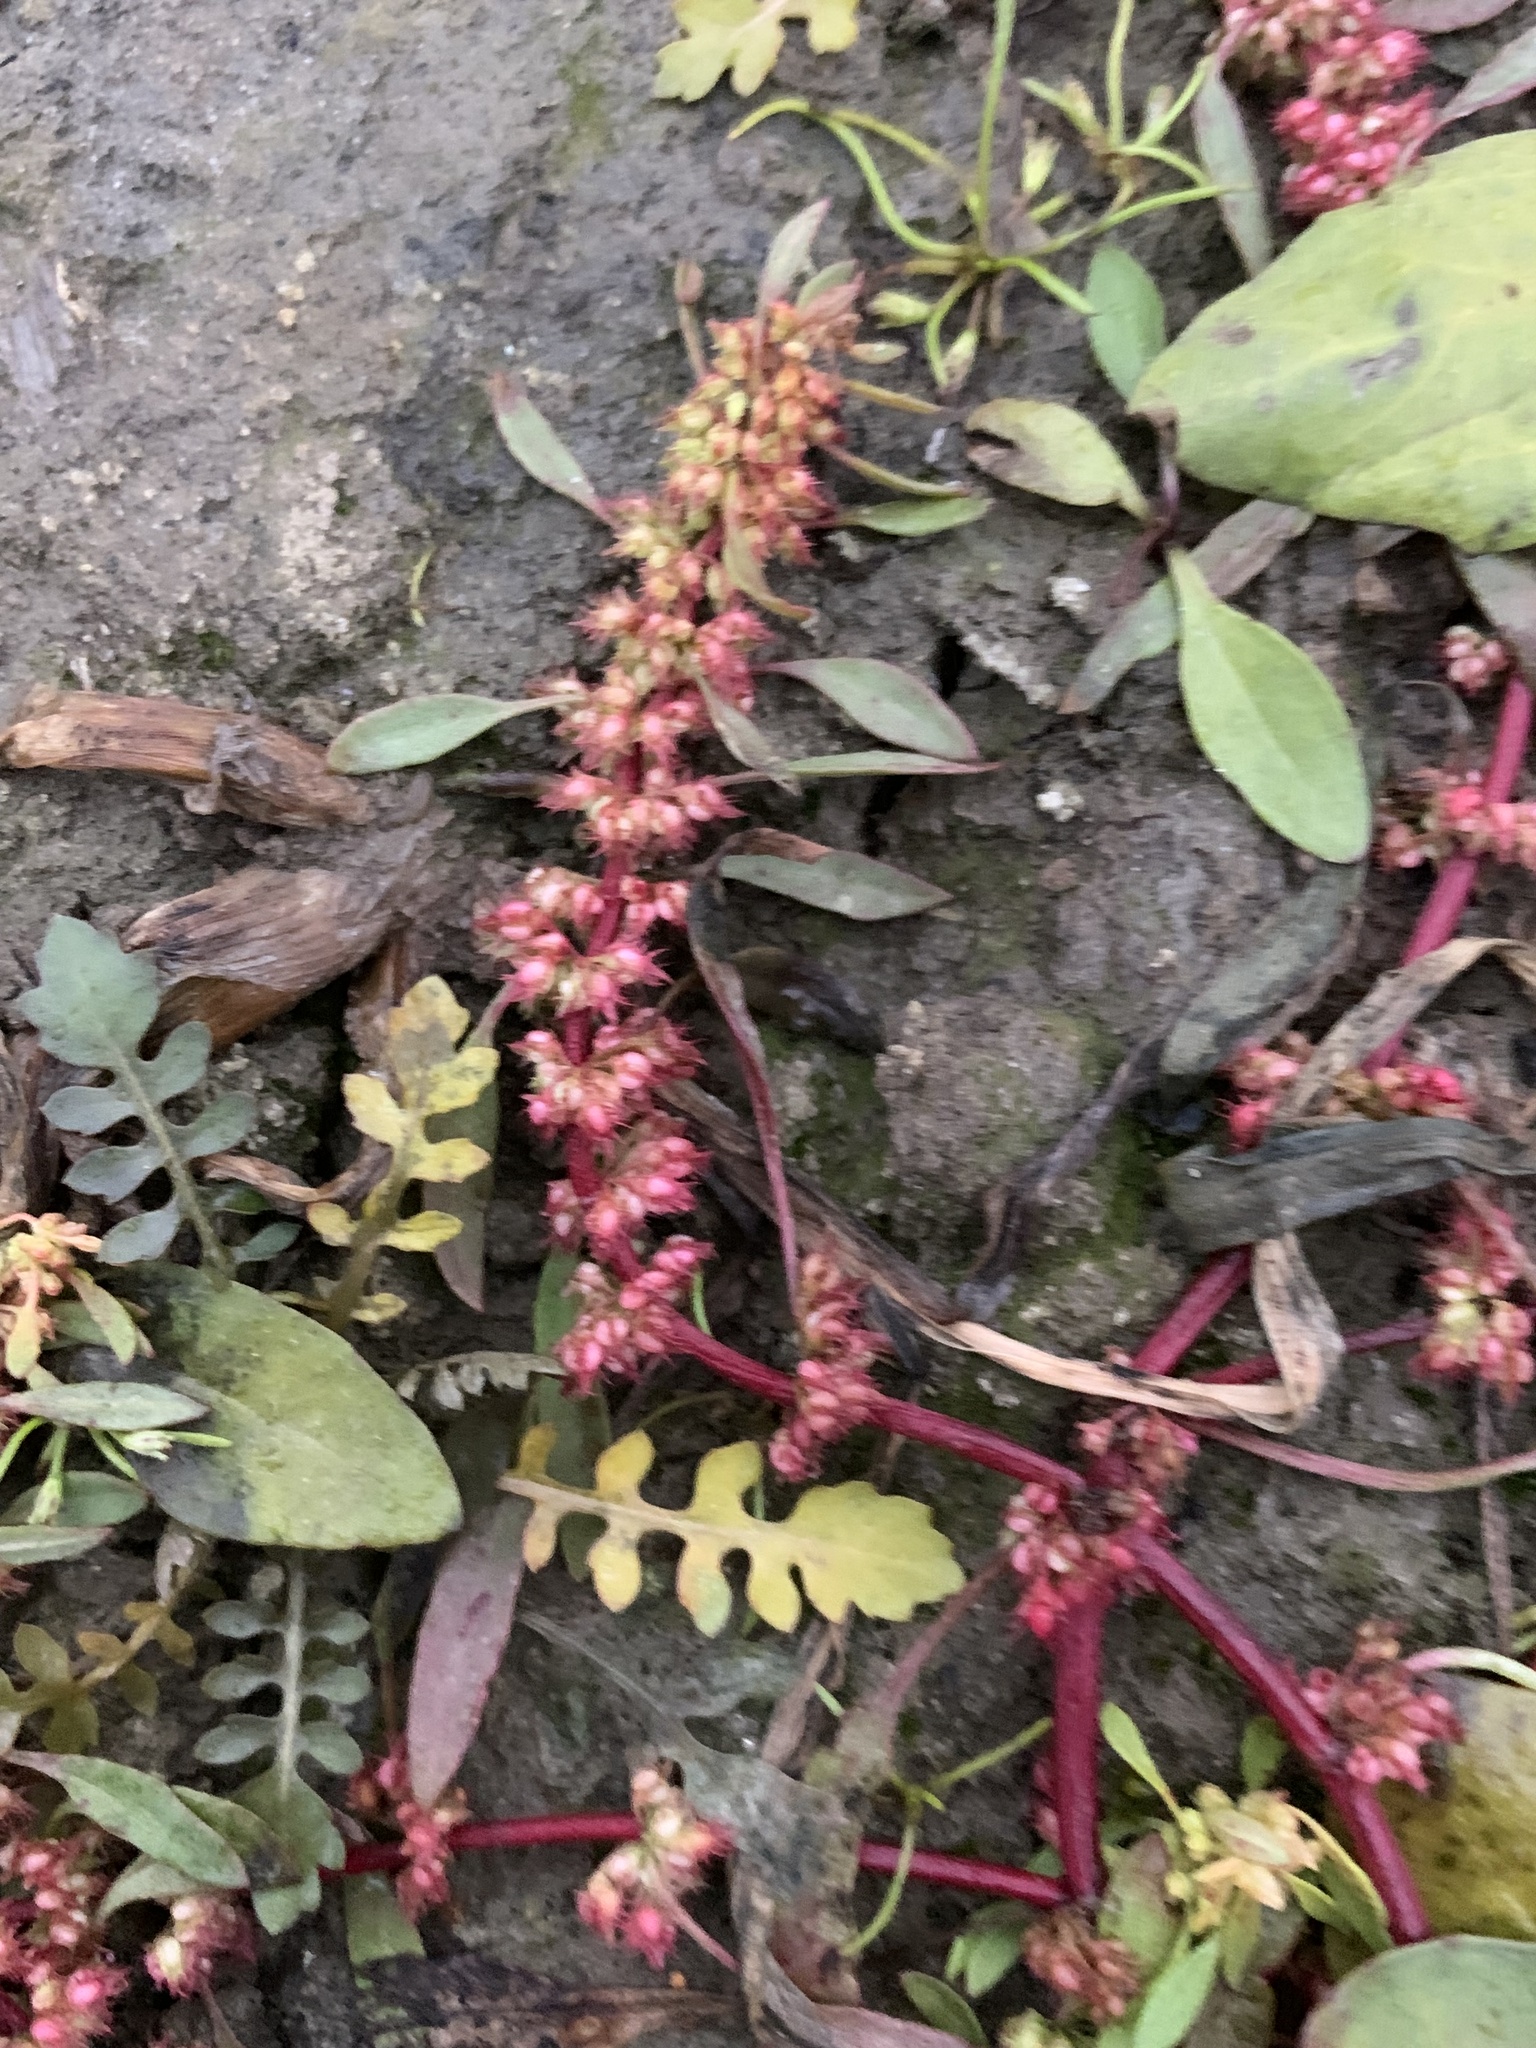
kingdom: Plantae
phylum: Tracheophyta
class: Magnoliopsida
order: Caryophyllales
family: Polygonaceae
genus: Rumex
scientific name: Rumex ucranicus
